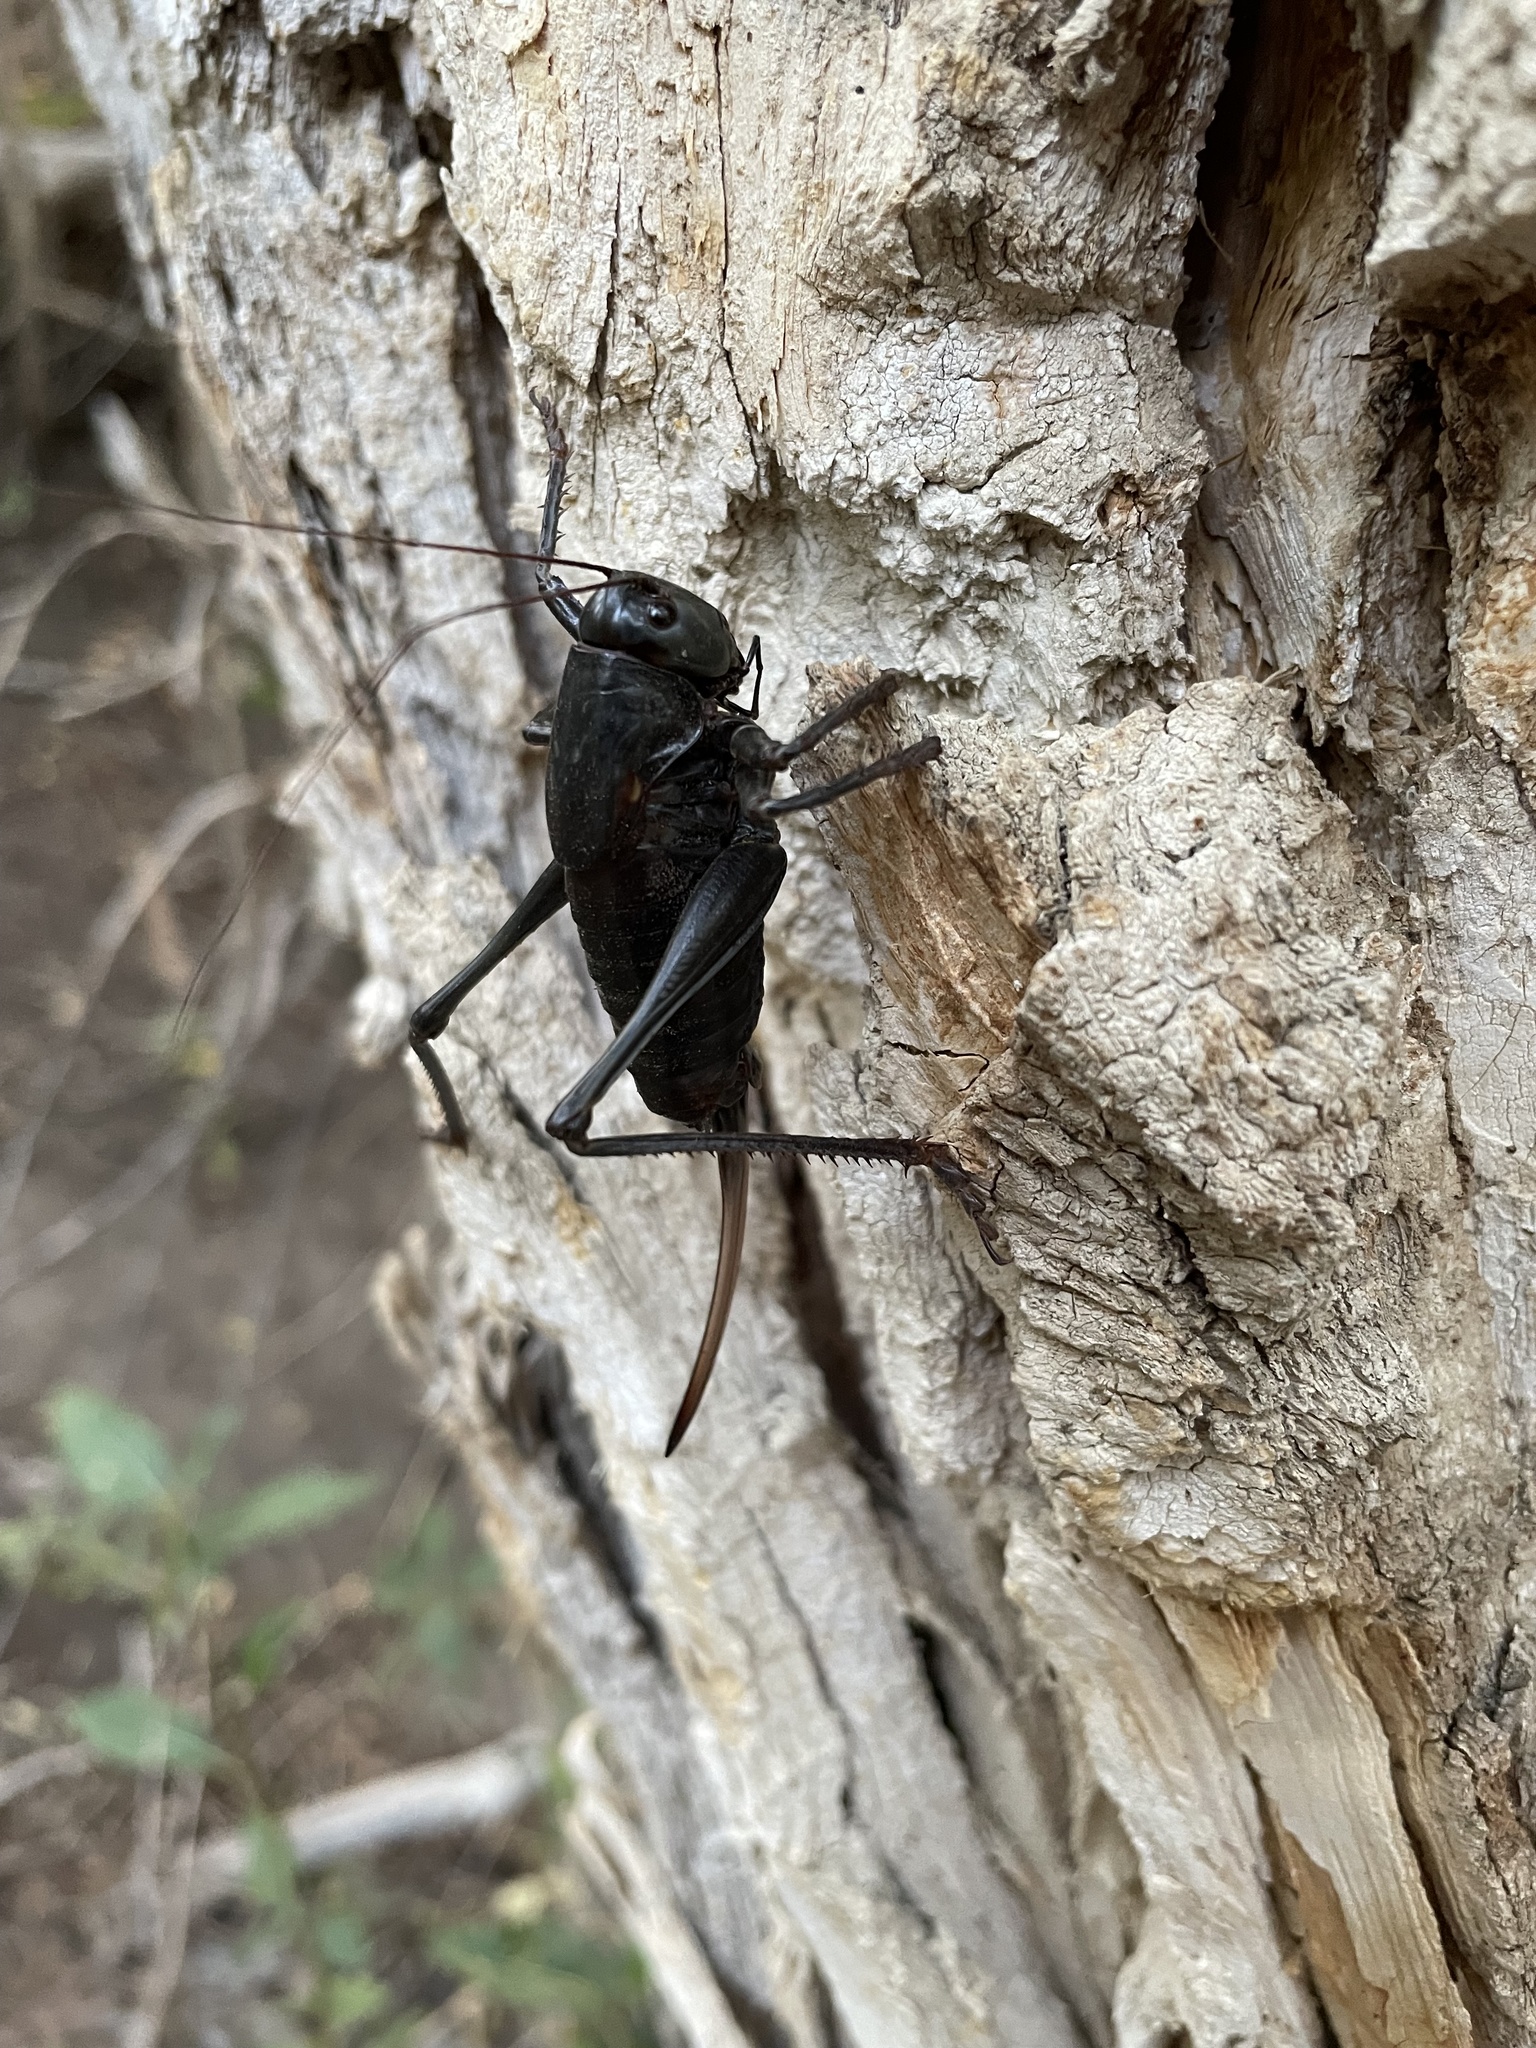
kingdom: Animalia
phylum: Arthropoda
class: Insecta
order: Orthoptera
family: Tettigoniidae
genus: Anabrus
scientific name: Anabrus simplex
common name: Mormon cricket
